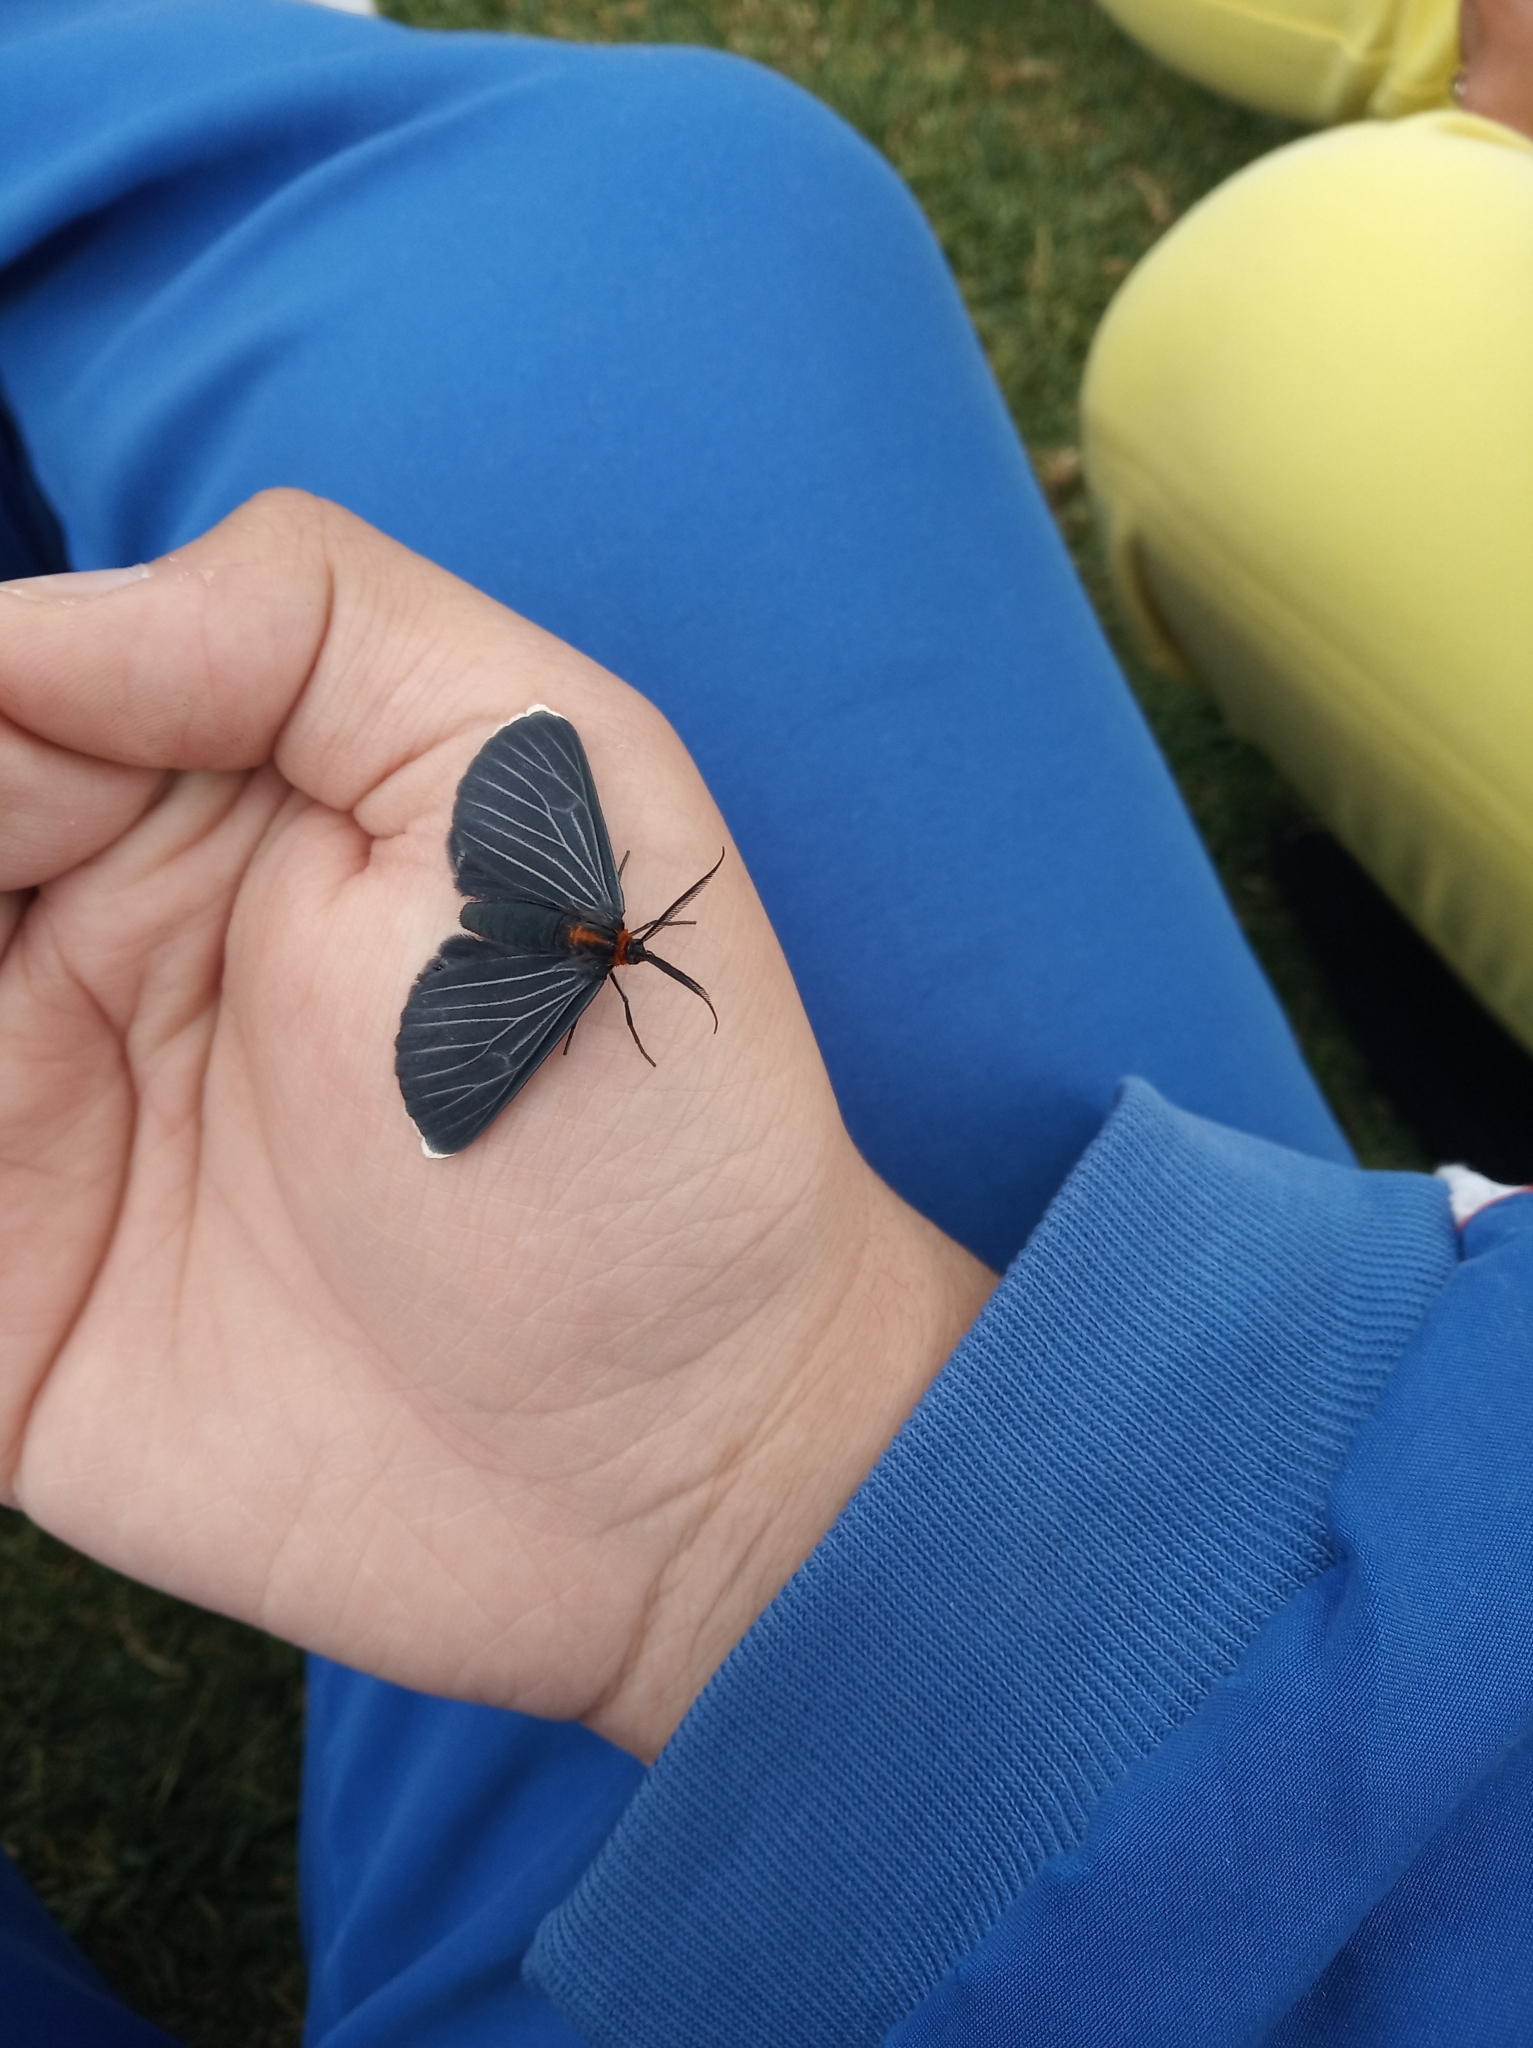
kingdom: Animalia
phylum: Arthropoda
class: Insecta
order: Lepidoptera
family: Geometridae
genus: Melanchroia
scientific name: Melanchroia chephise
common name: White-tipped black
